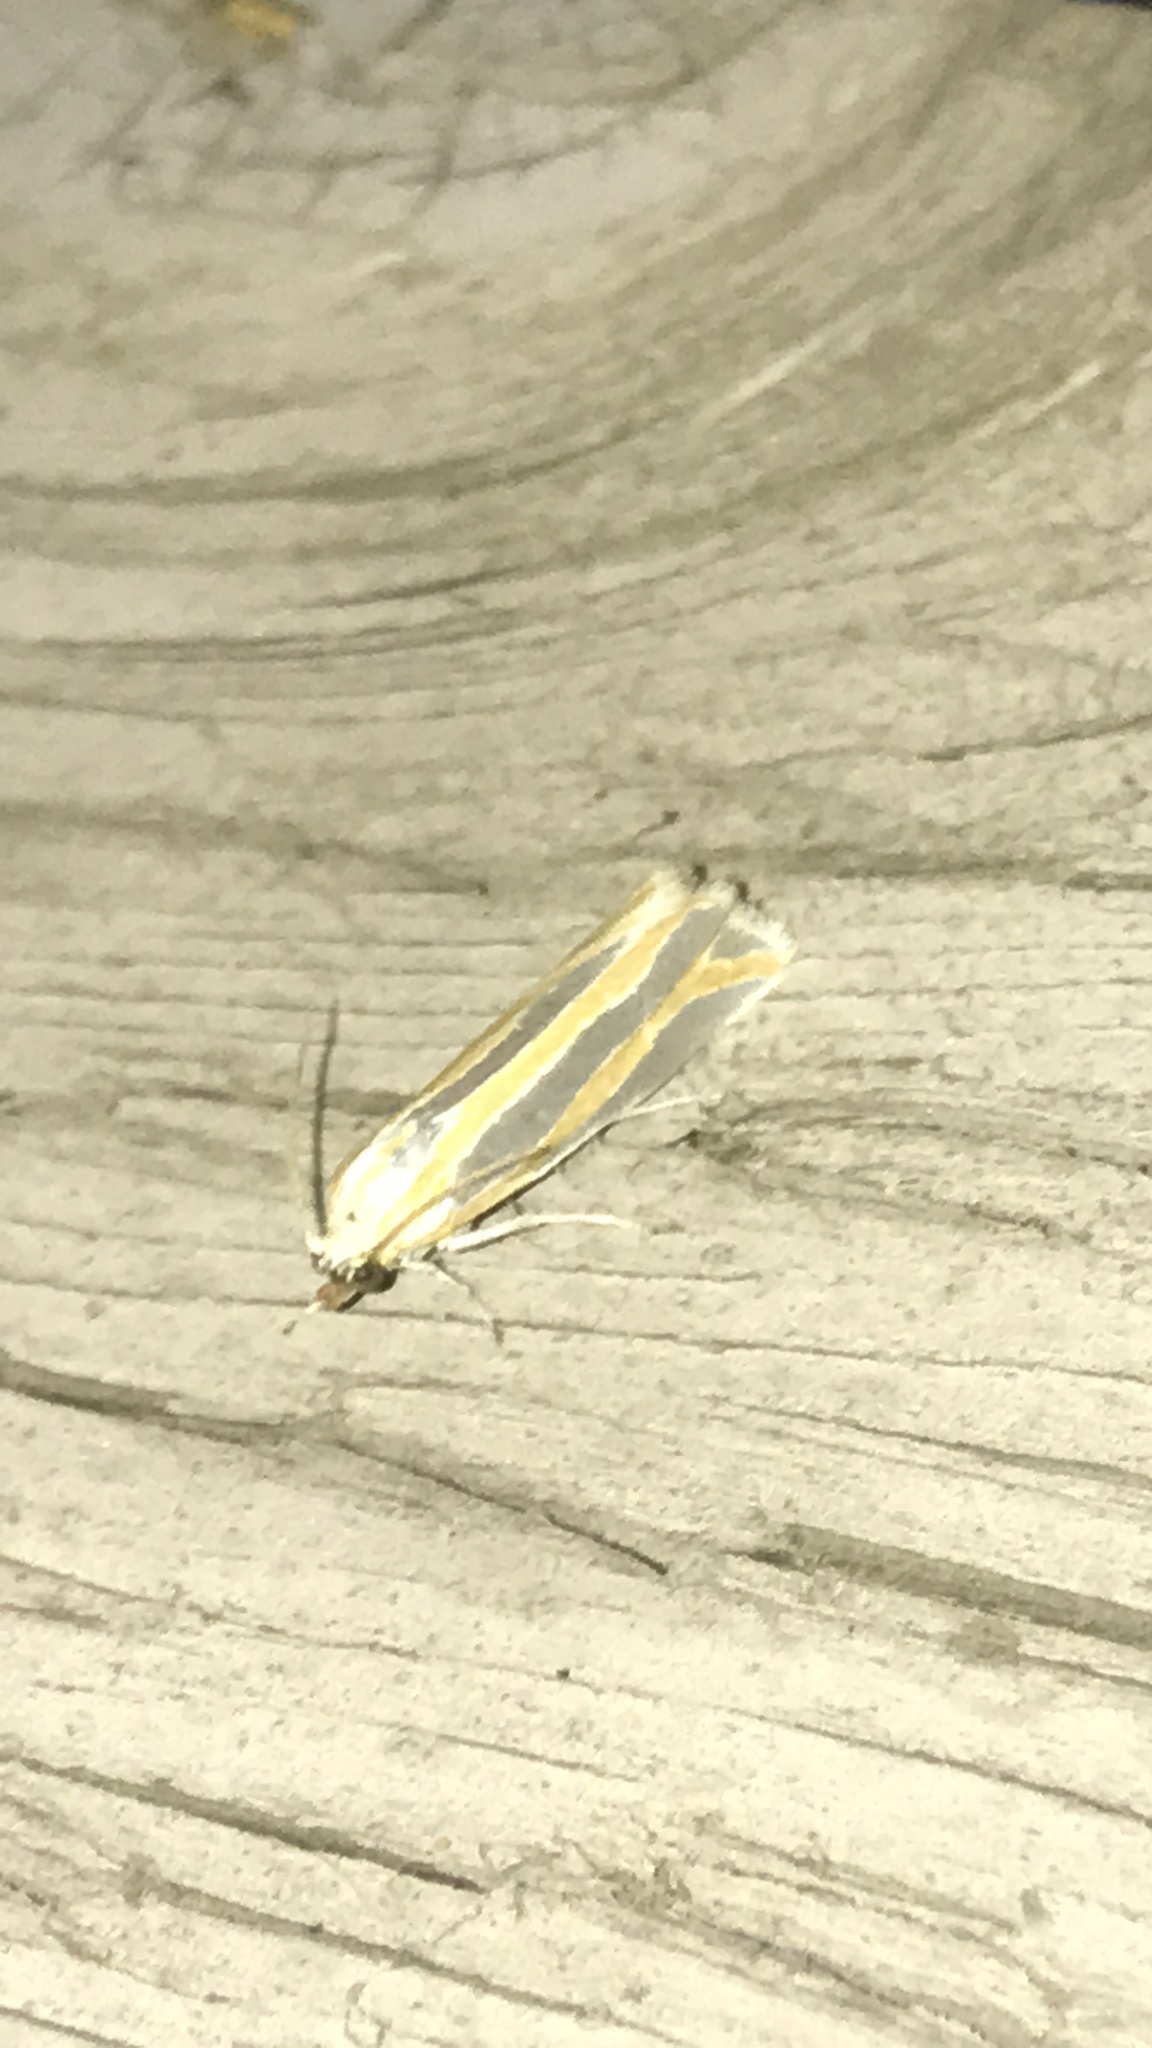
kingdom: Animalia
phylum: Arthropoda
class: Insecta
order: Lepidoptera
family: Tortricidae
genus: Pelochrista
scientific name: Pelochrista crambitana
